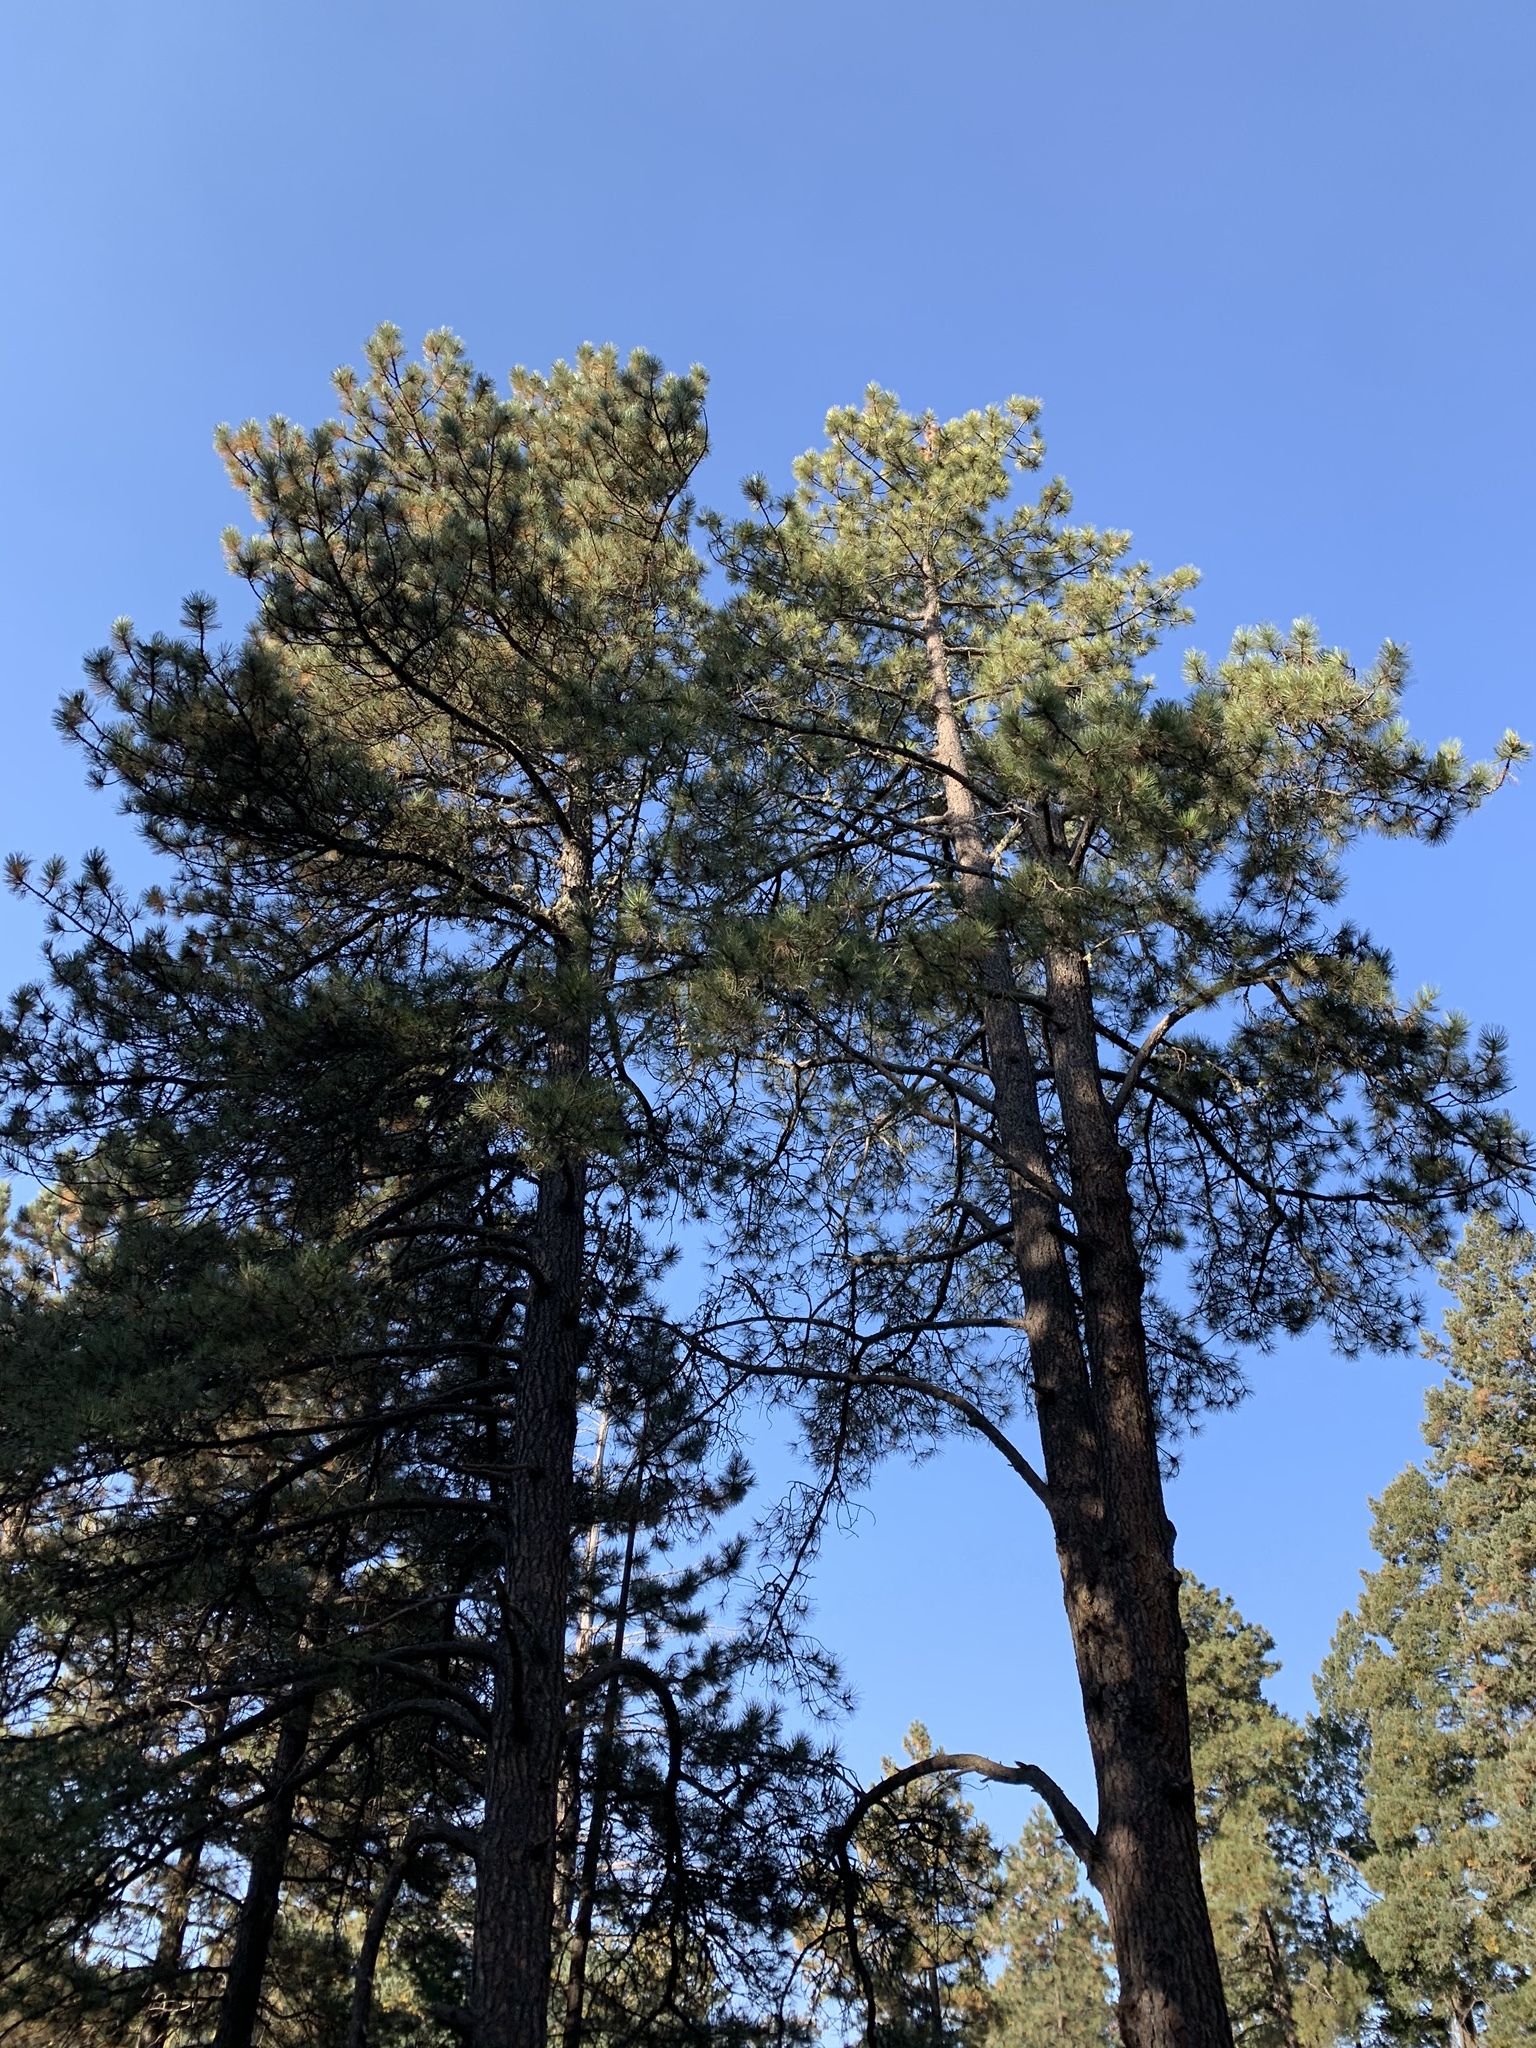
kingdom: Plantae
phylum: Tracheophyta
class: Pinopsida
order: Pinales
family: Pinaceae
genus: Pinus
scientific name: Pinus ponderosa
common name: Western yellow-pine
